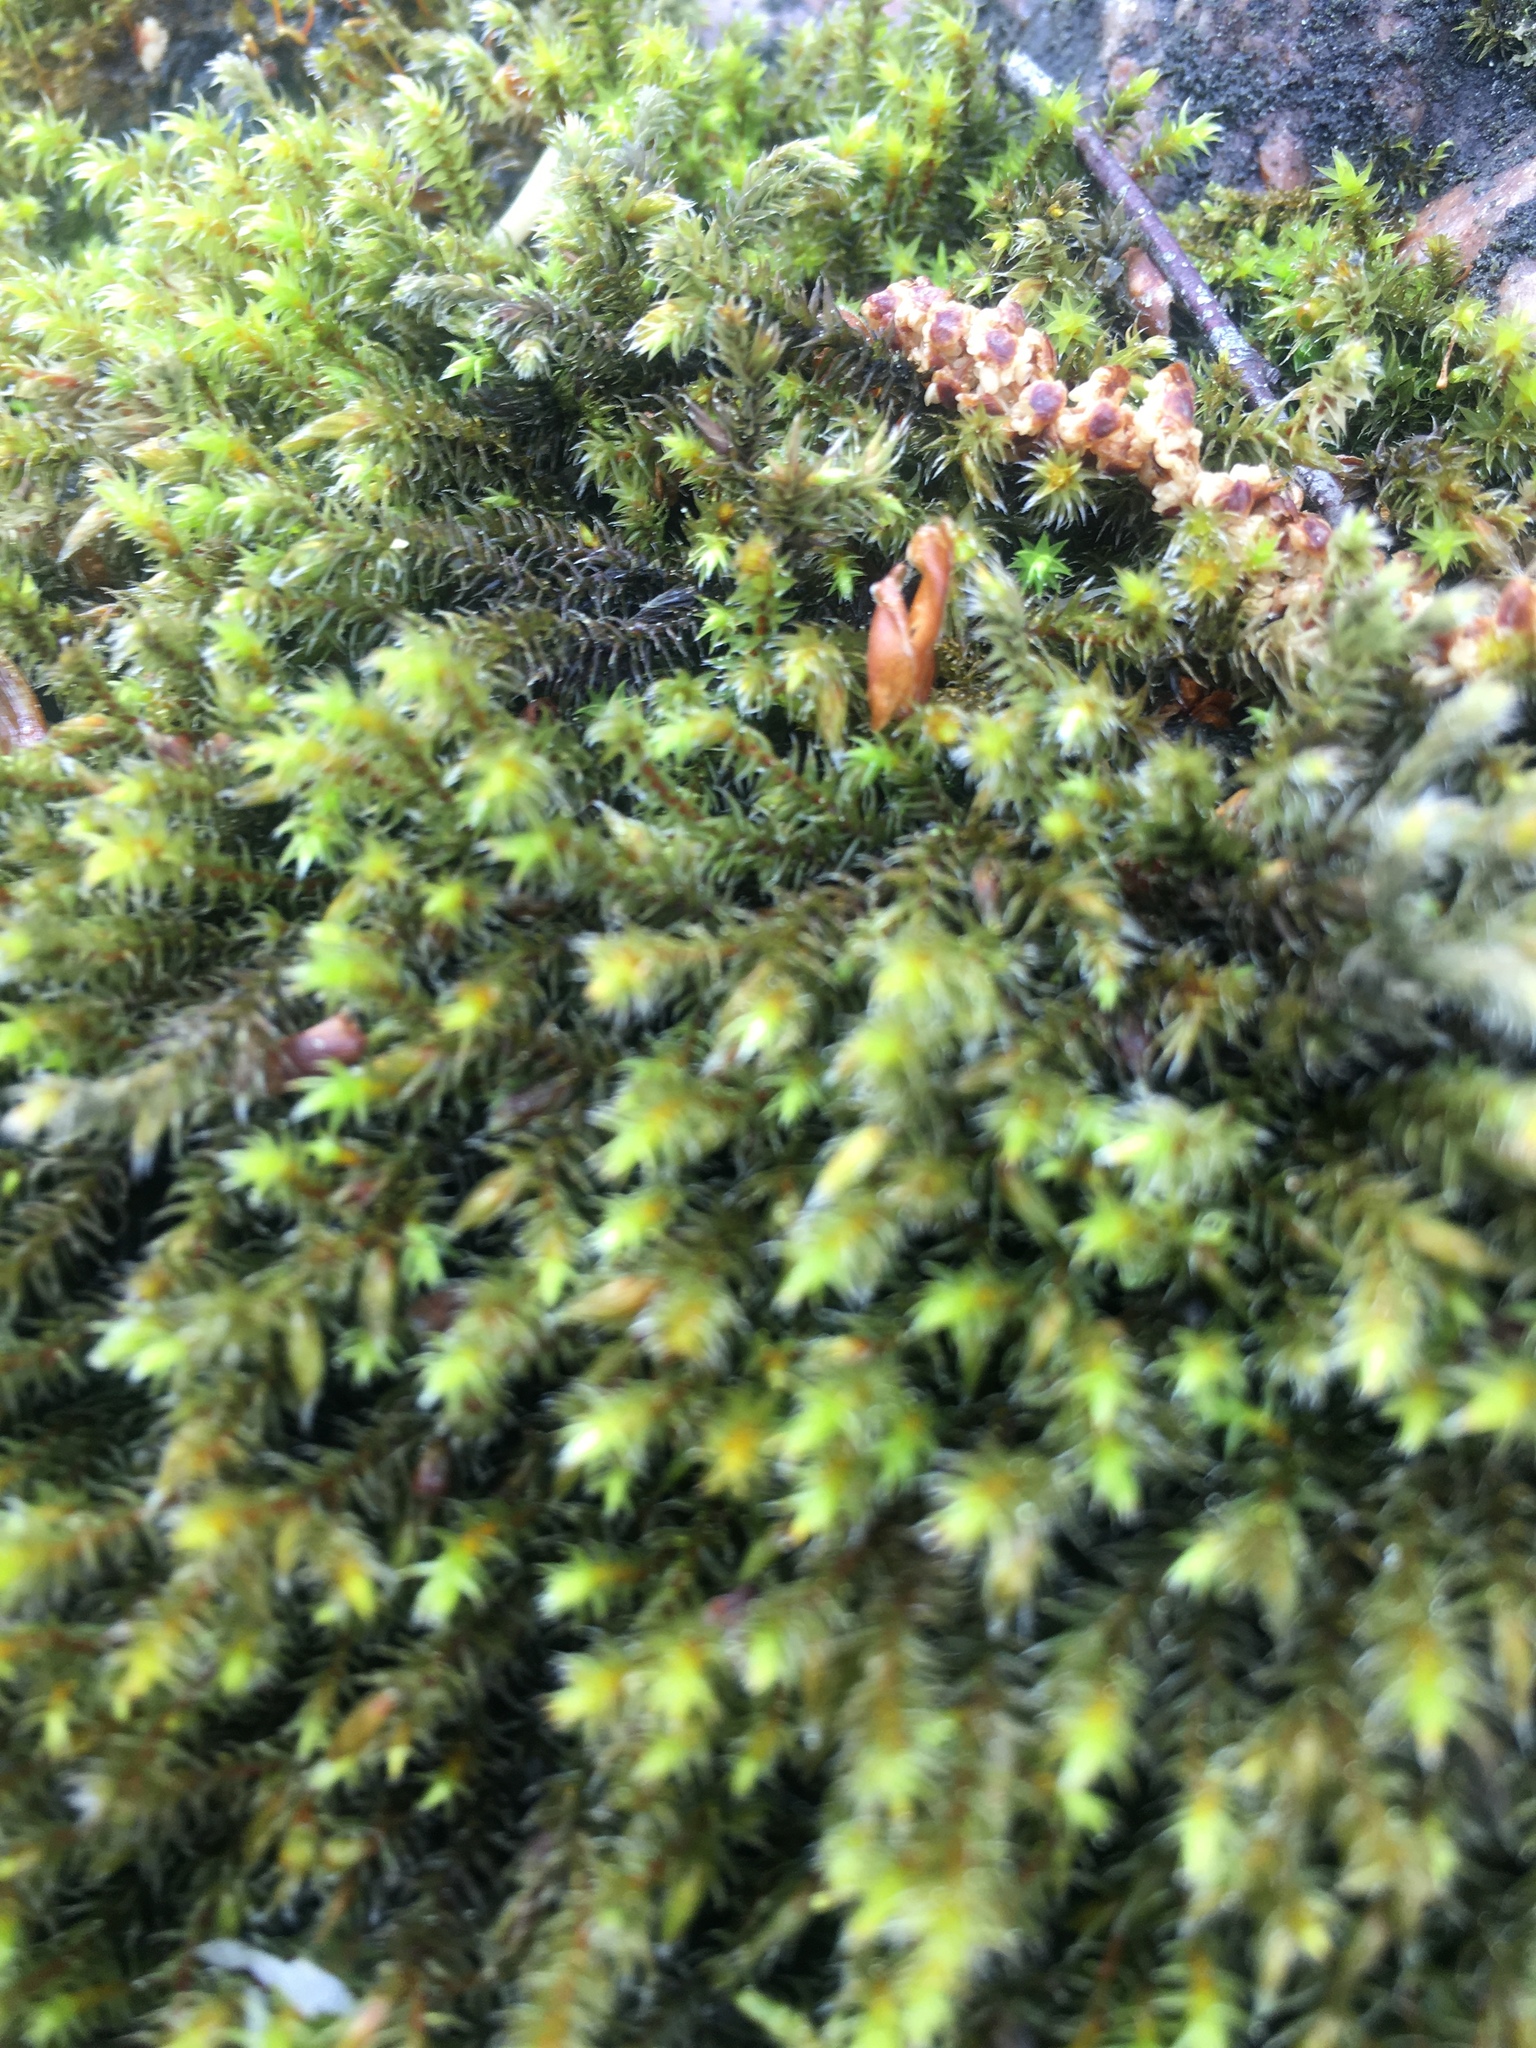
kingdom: Plantae
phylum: Bryophyta
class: Bryopsida
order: Hedwigiales
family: Hedwigiaceae
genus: Hedwigia
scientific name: Hedwigia ciliata
